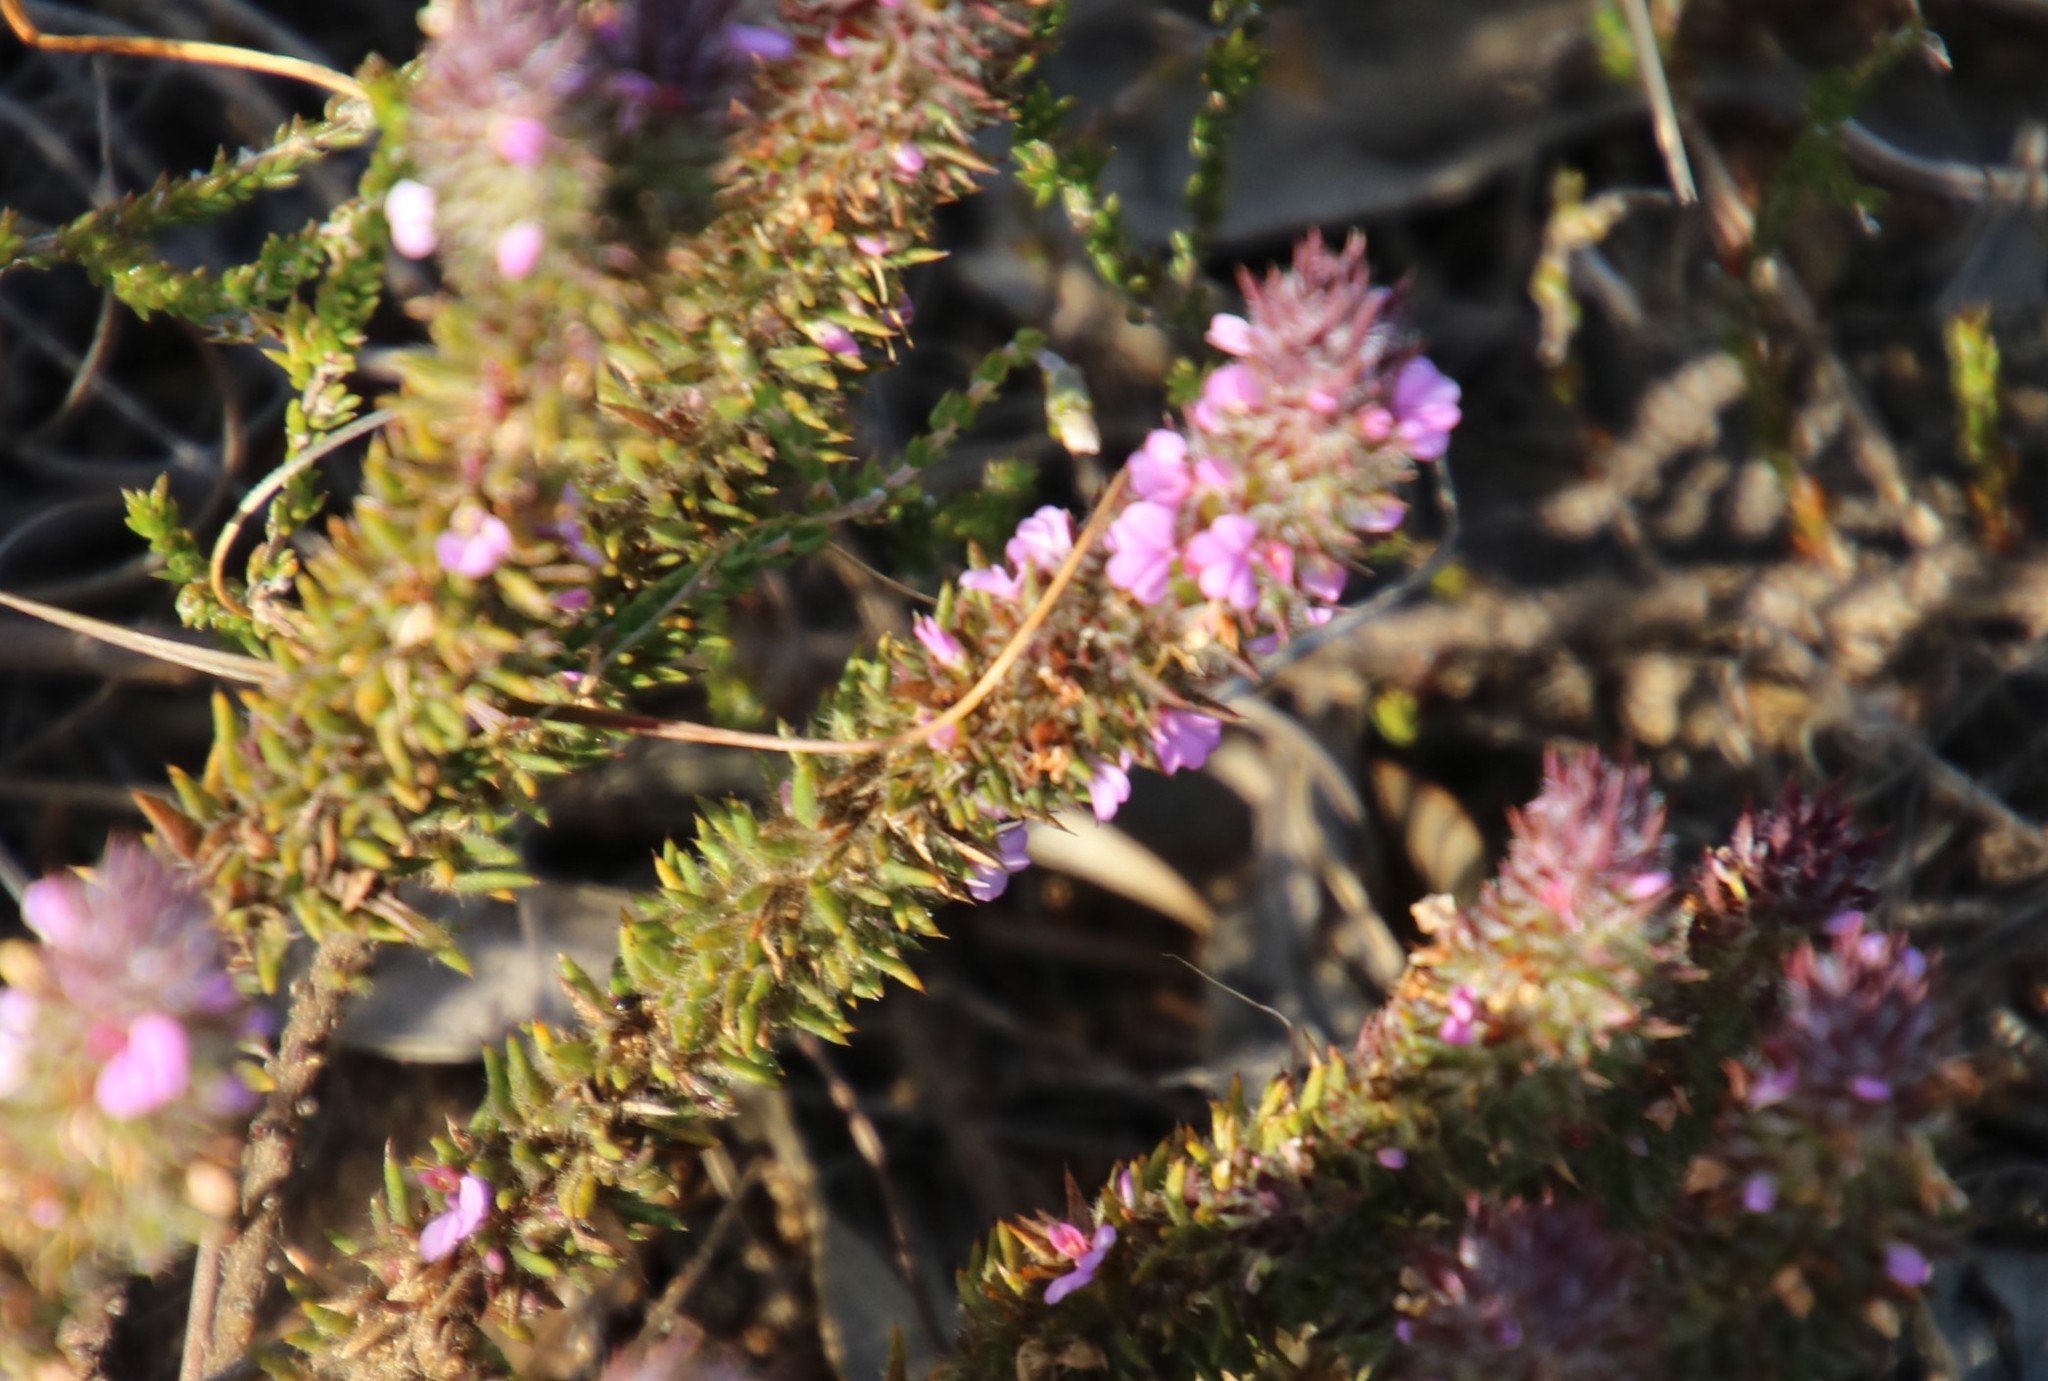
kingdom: Plantae
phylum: Tracheophyta
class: Magnoliopsida
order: Fabales
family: Polygalaceae
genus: Muraltia
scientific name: Muraltia thunbergii
